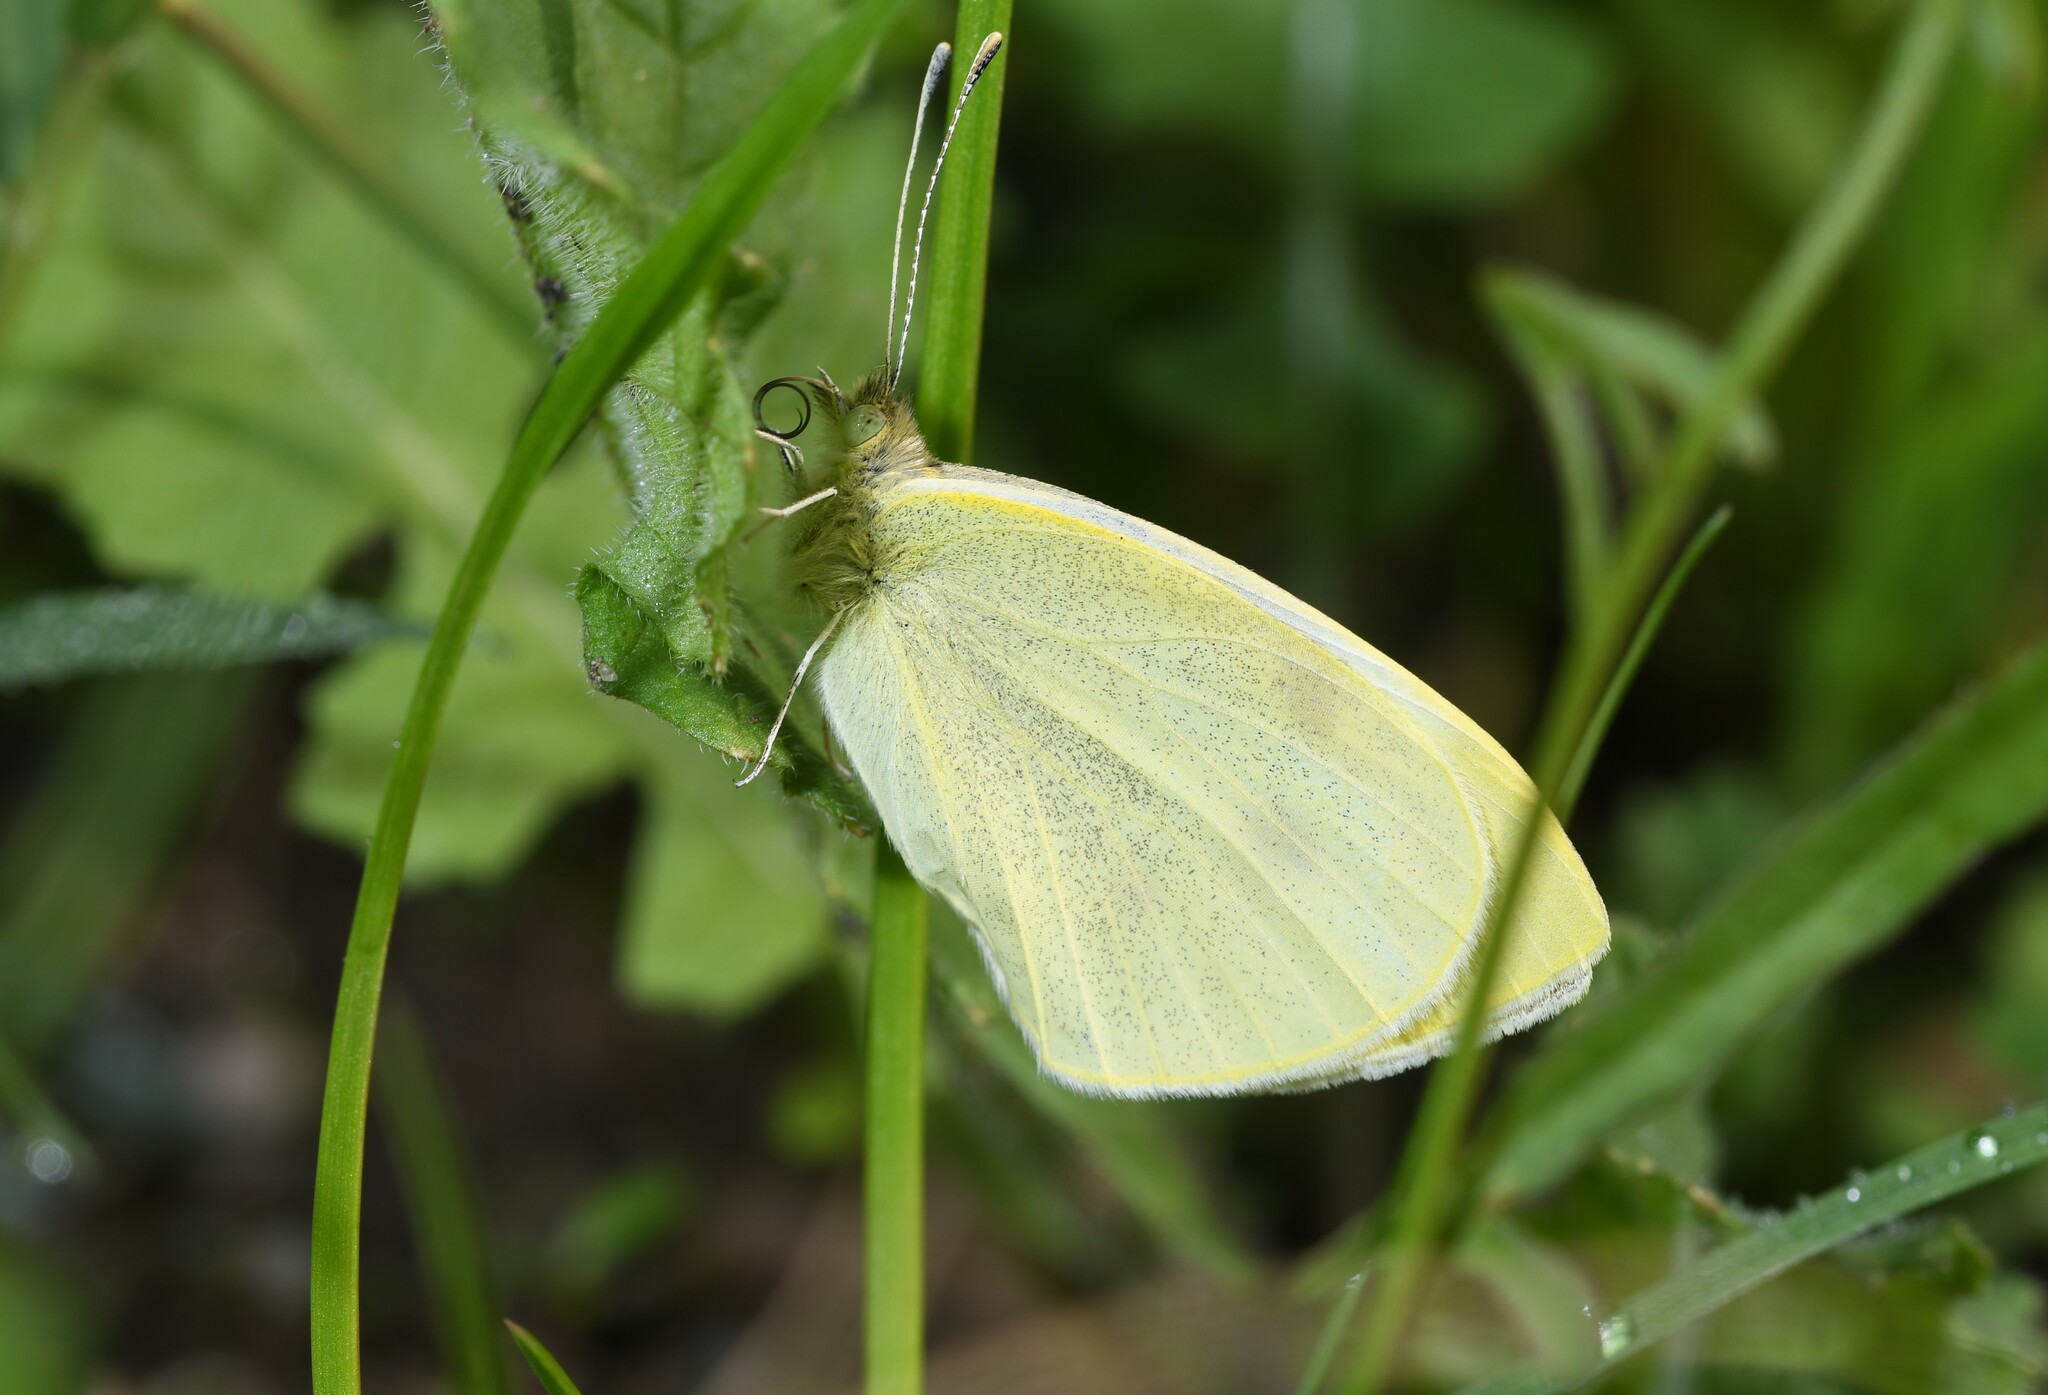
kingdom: Animalia
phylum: Arthropoda
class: Insecta
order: Lepidoptera
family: Pieridae
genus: Pieris
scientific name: Pieris rapae
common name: Small white
